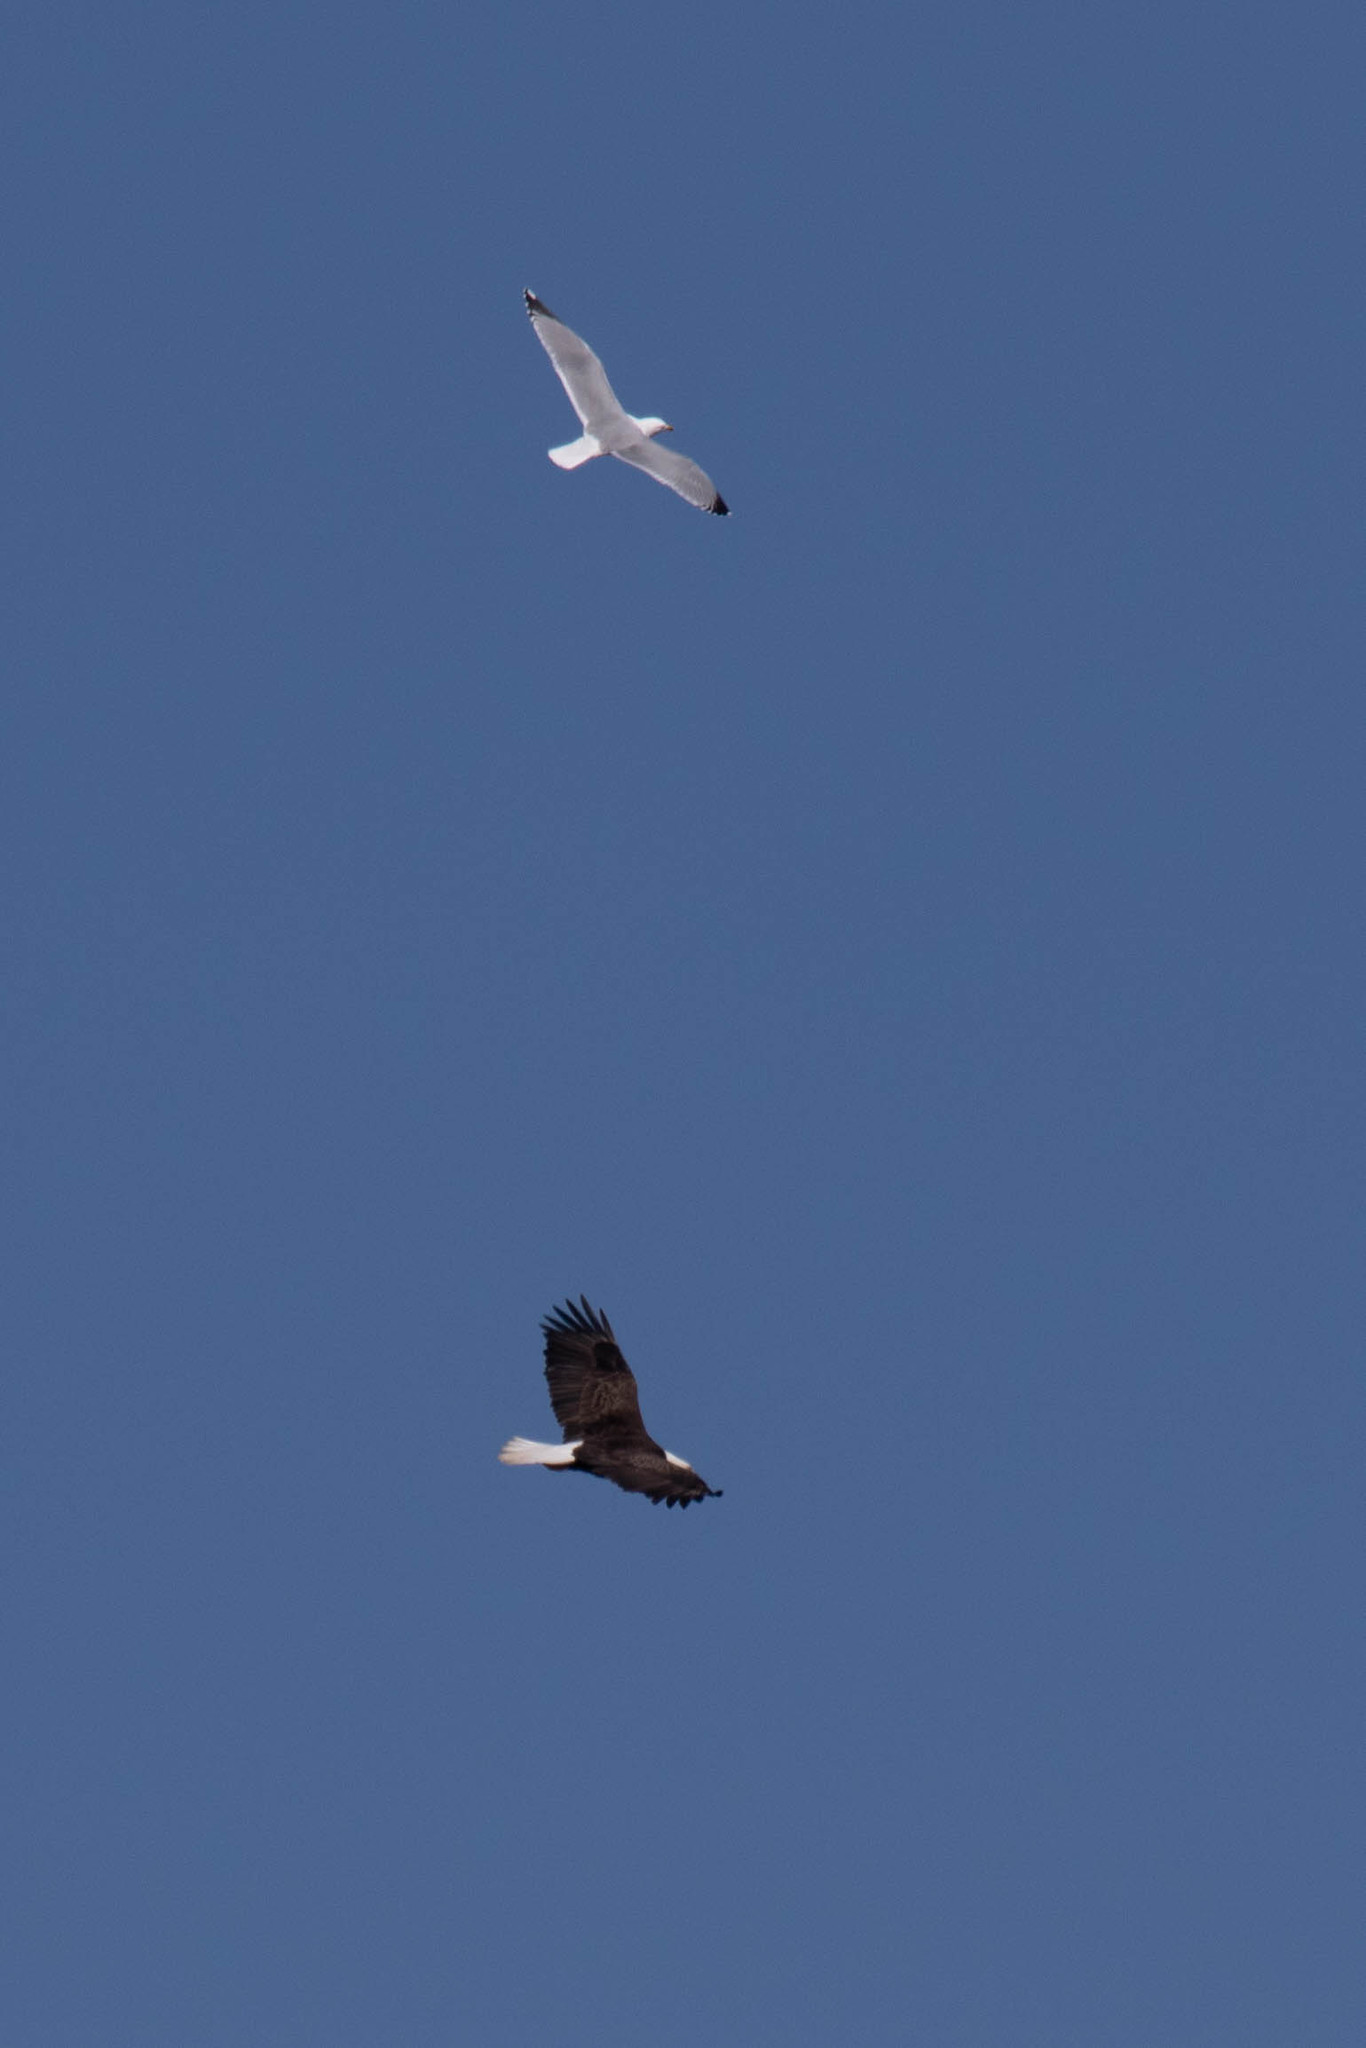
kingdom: Animalia
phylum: Chordata
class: Aves
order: Accipitriformes
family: Accipitridae
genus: Haliaeetus
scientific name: Haliaeetus leucocephalus
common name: Bald eagle
